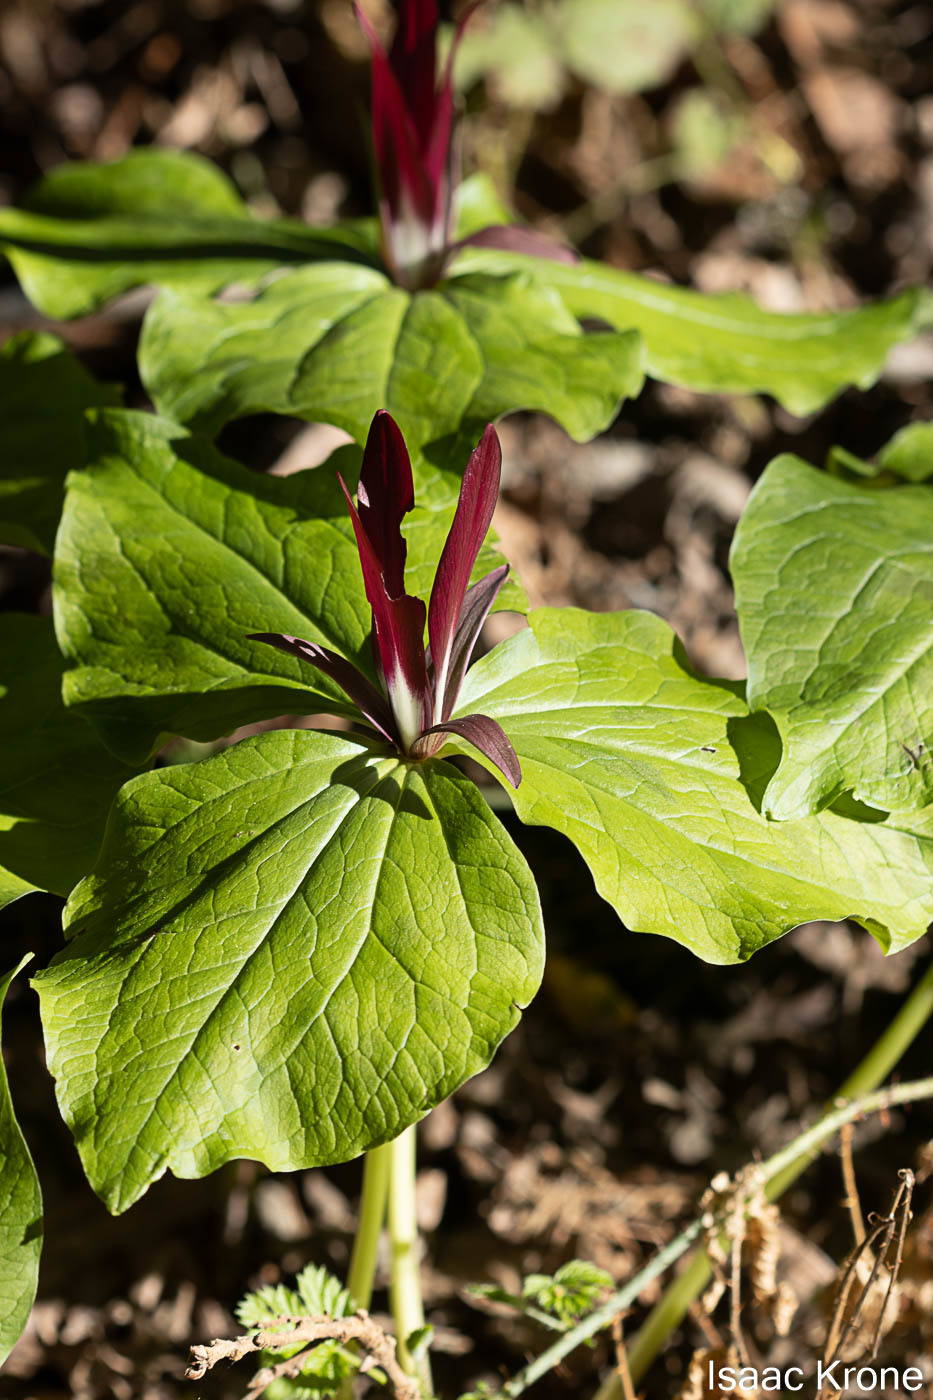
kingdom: Plantae
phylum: Tracheophyta
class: Liliopsida
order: Liliales
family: Melanthiaceae
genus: Trillium
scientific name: Trillium chloropetalum
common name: Giant trillium
